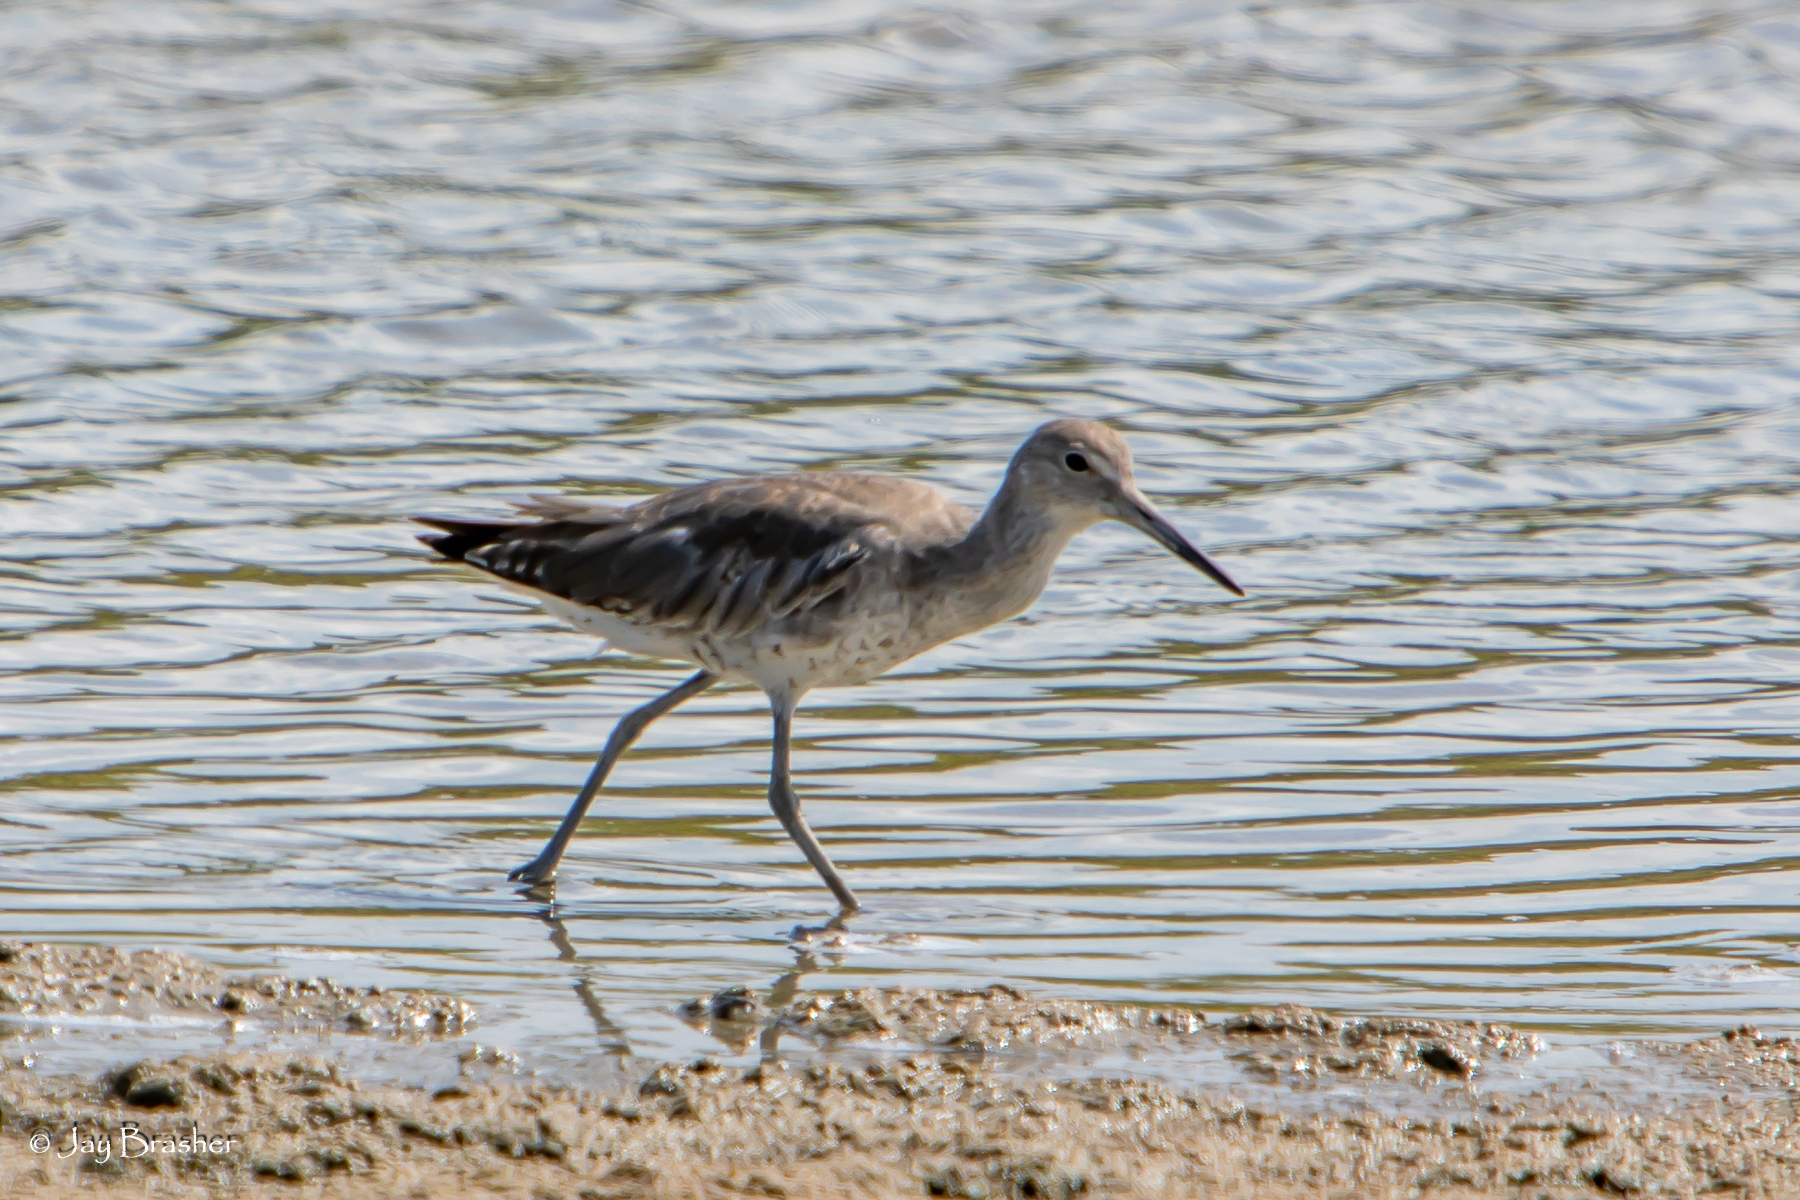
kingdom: Animalia
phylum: Chordata
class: Aves
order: Charadriiformes
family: Scolopacidae
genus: Tringa
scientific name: Tringa semipalmata
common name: Willet
